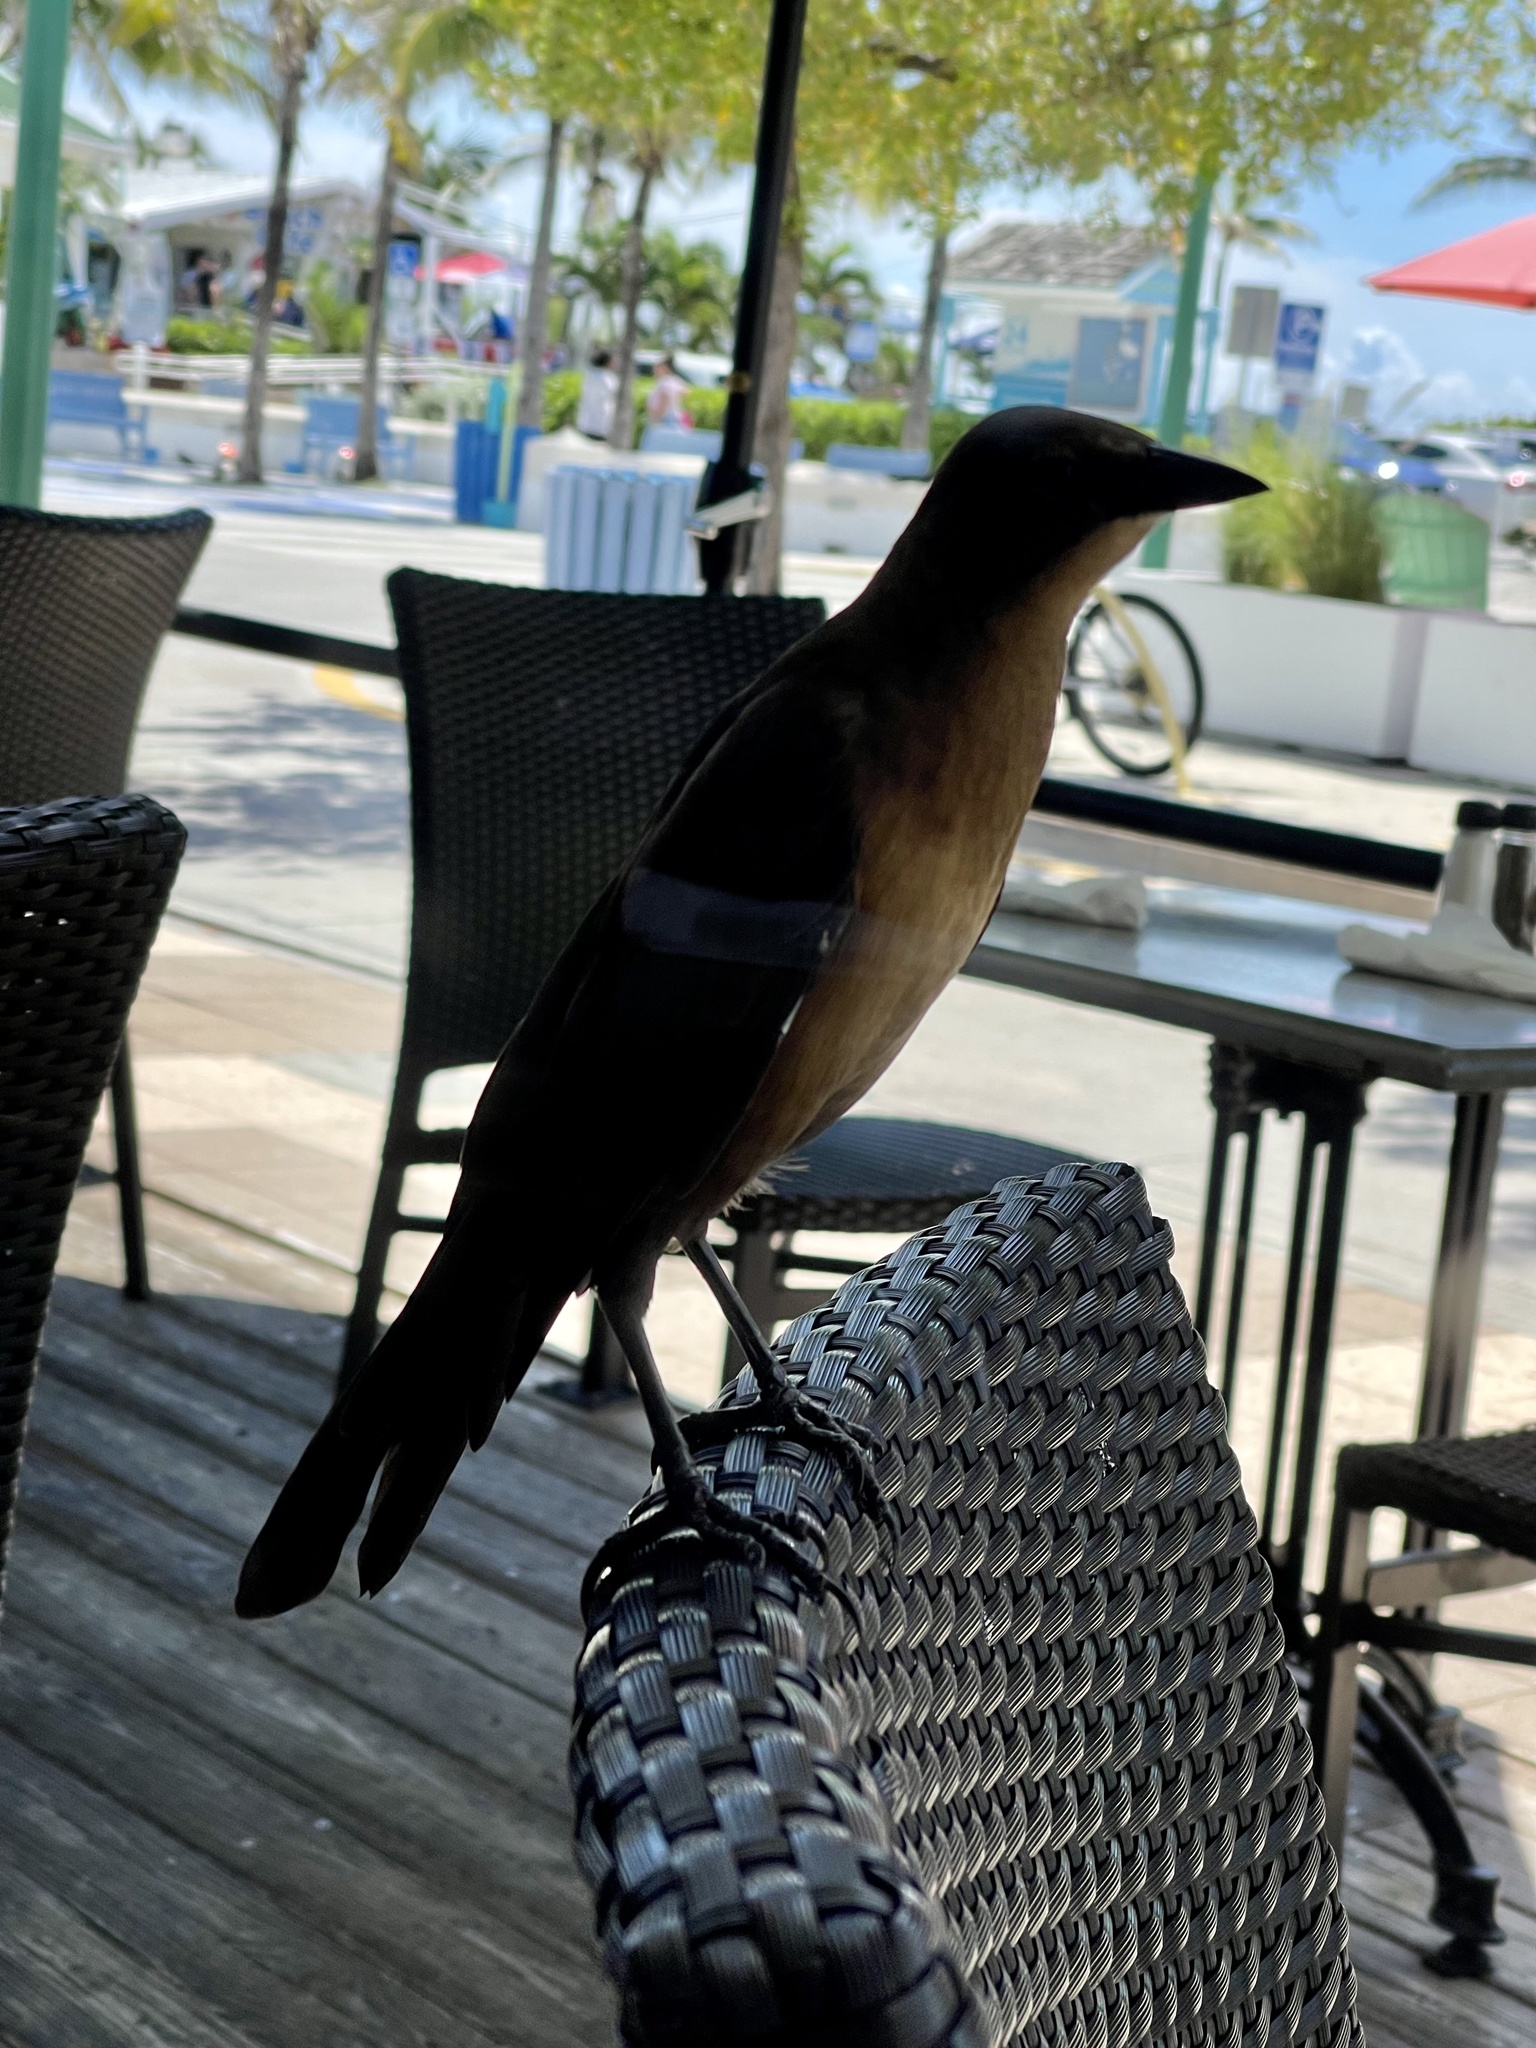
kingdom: Animalia
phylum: Chordata
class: Aves
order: Passeriformes
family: Icteridae
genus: Quiscalus
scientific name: Quiscalus major
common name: Boat-tailed grackle
